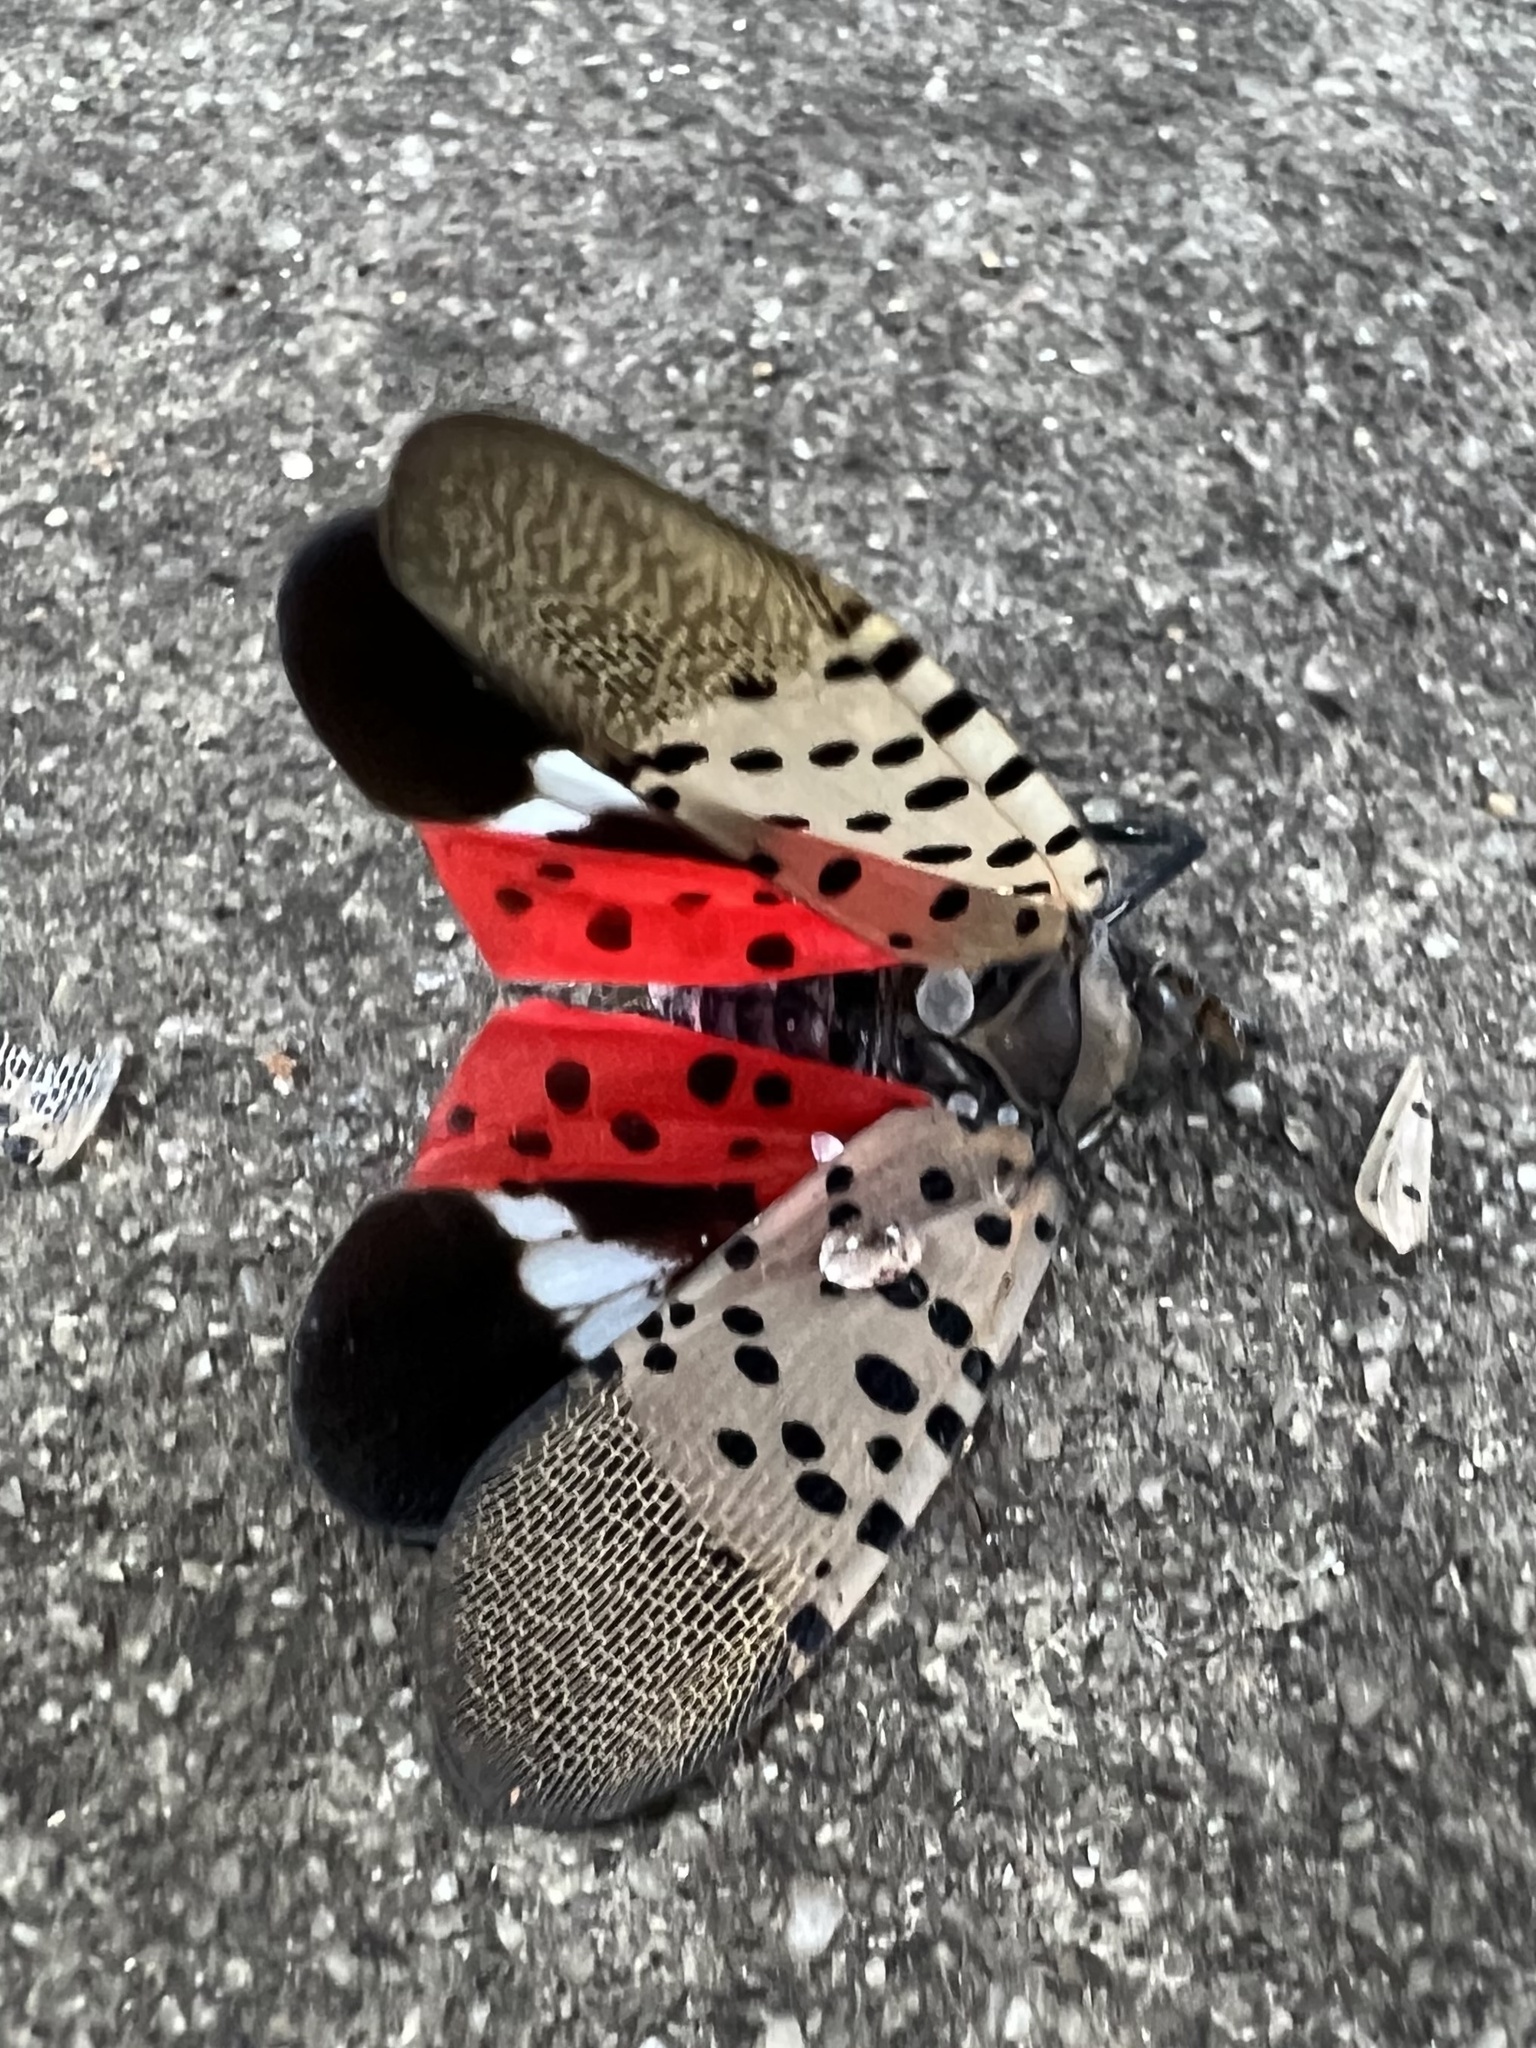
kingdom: Animalia
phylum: Arthropoda
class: Insecta
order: Hemiptera
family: Fulgoridae
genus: Lycorma
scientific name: Lycorma delicatula
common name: Spotted lanternfly
